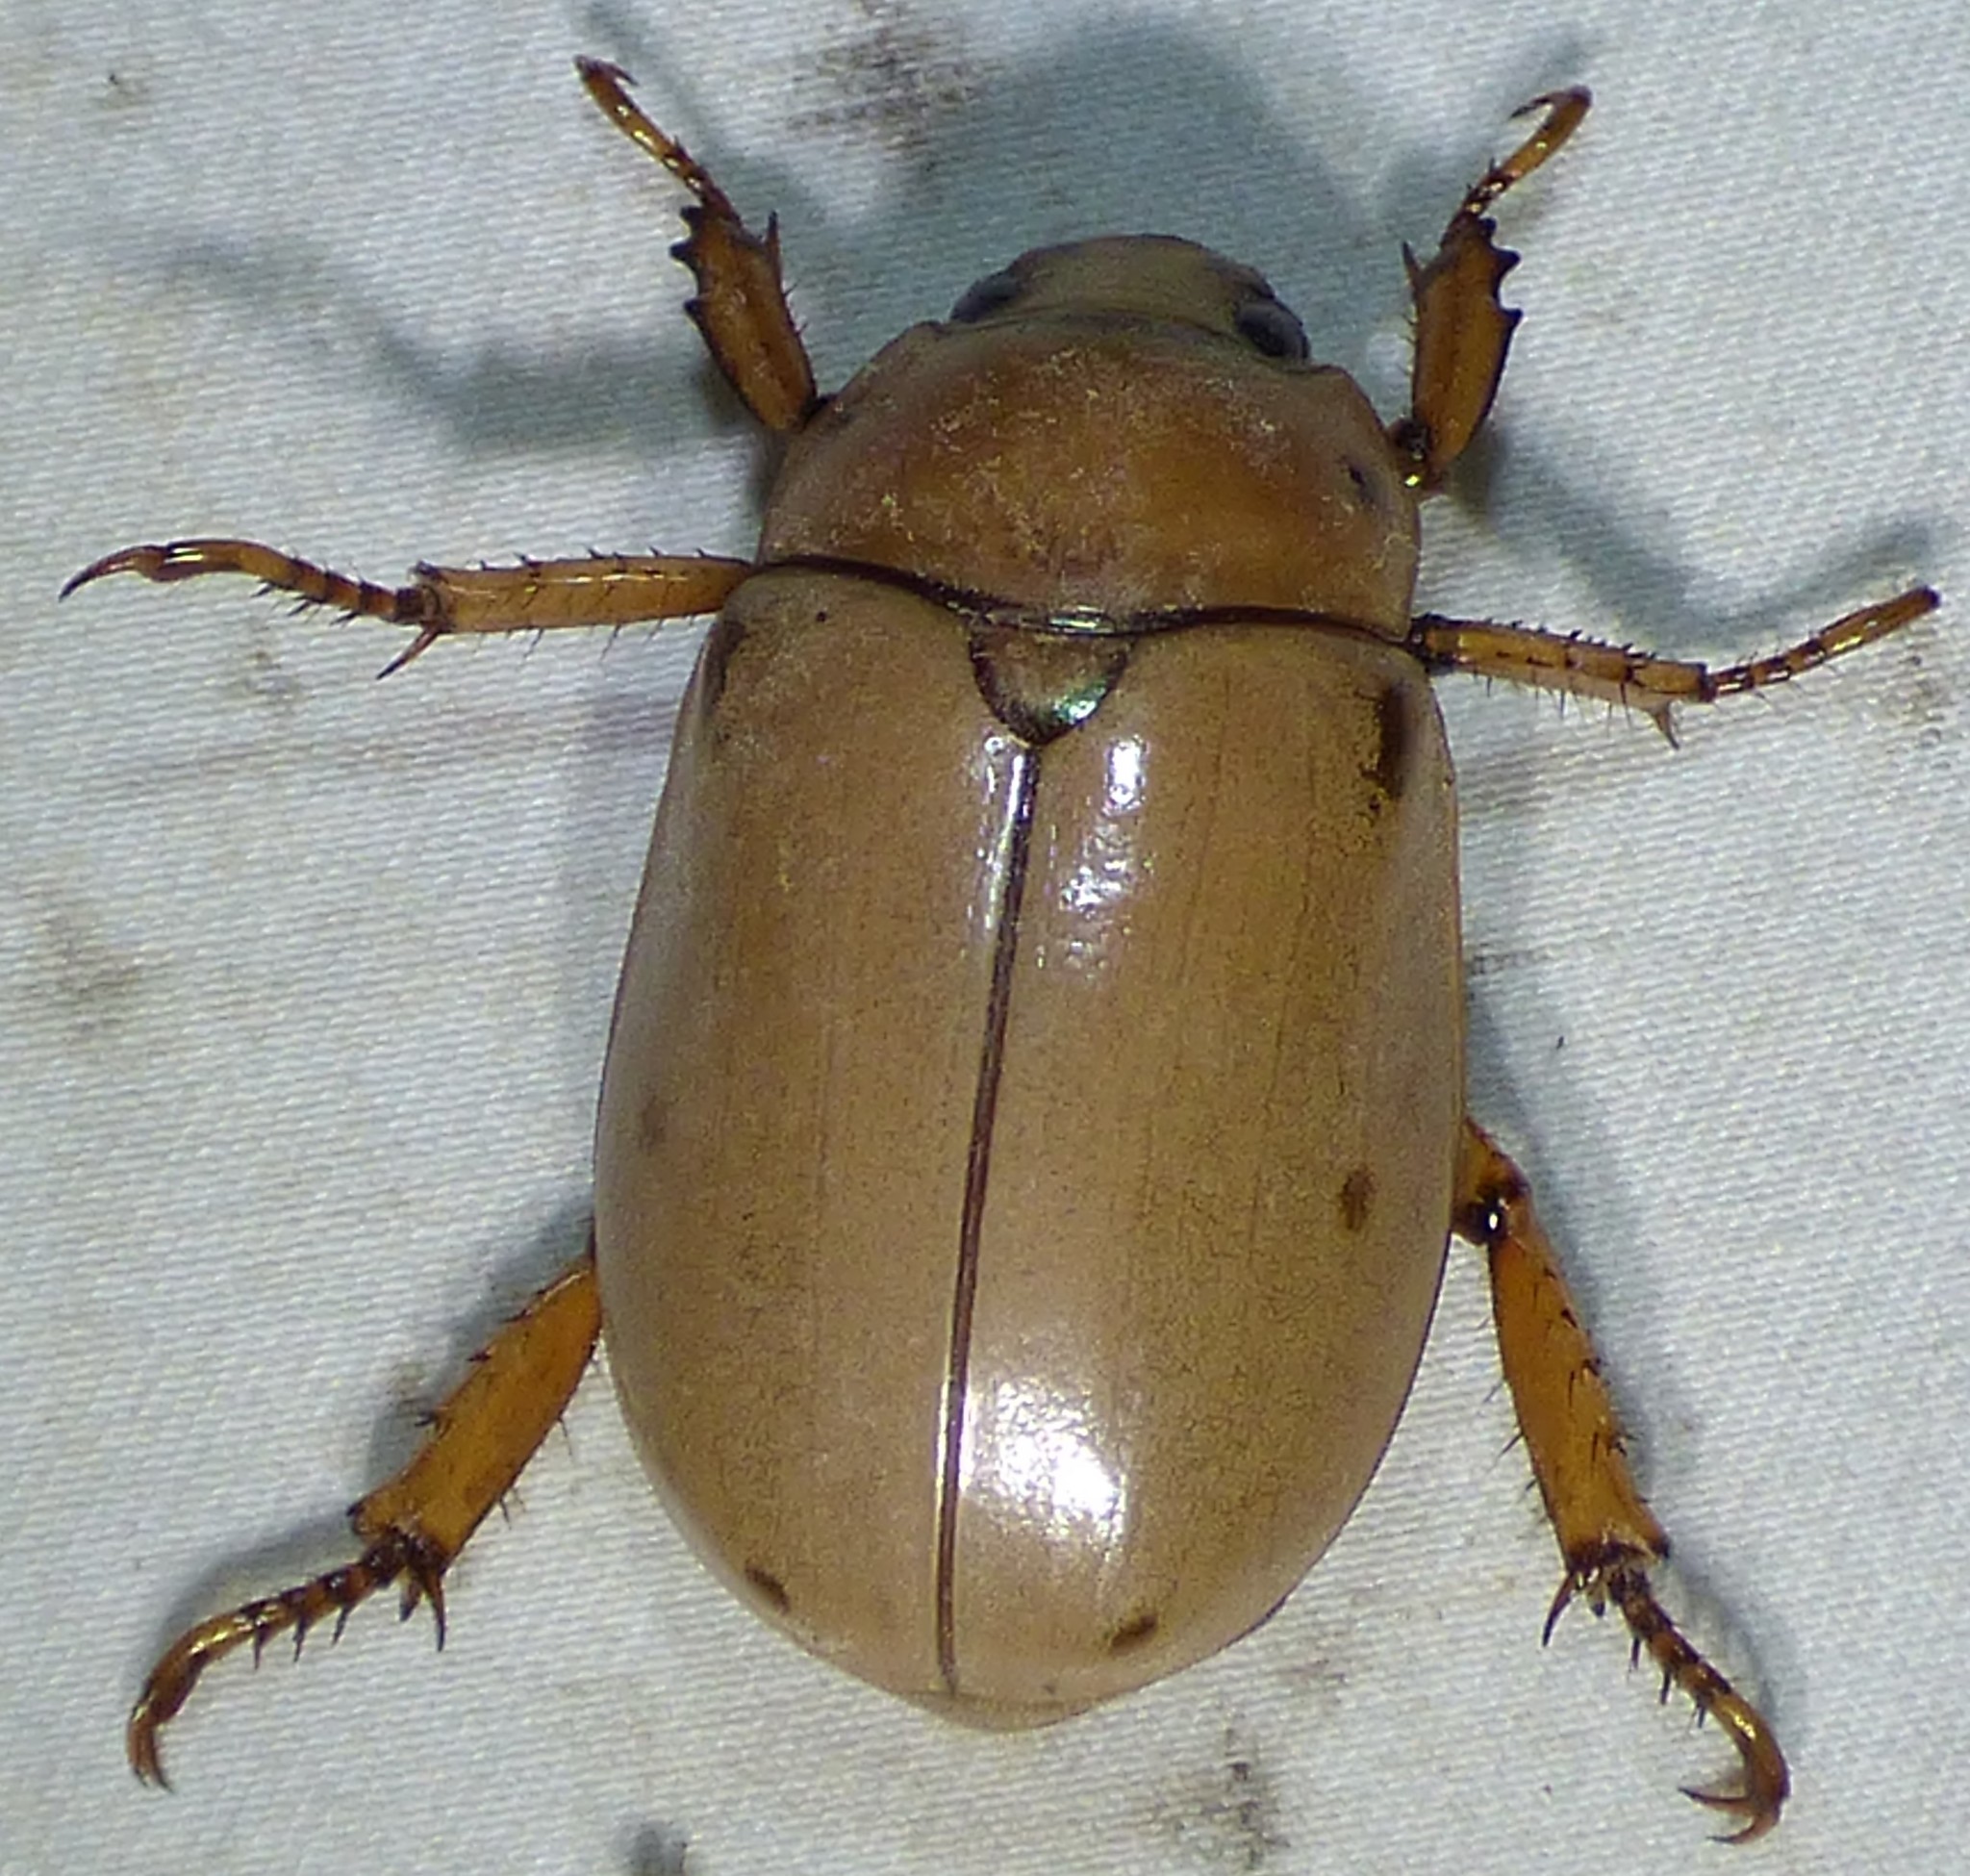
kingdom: Animalia
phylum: Arthropoda
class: Insecta
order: Coleoptera
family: Scarabaeidae
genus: Pelidnota
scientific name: Pelidnota punctata
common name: Grapevine beetle
